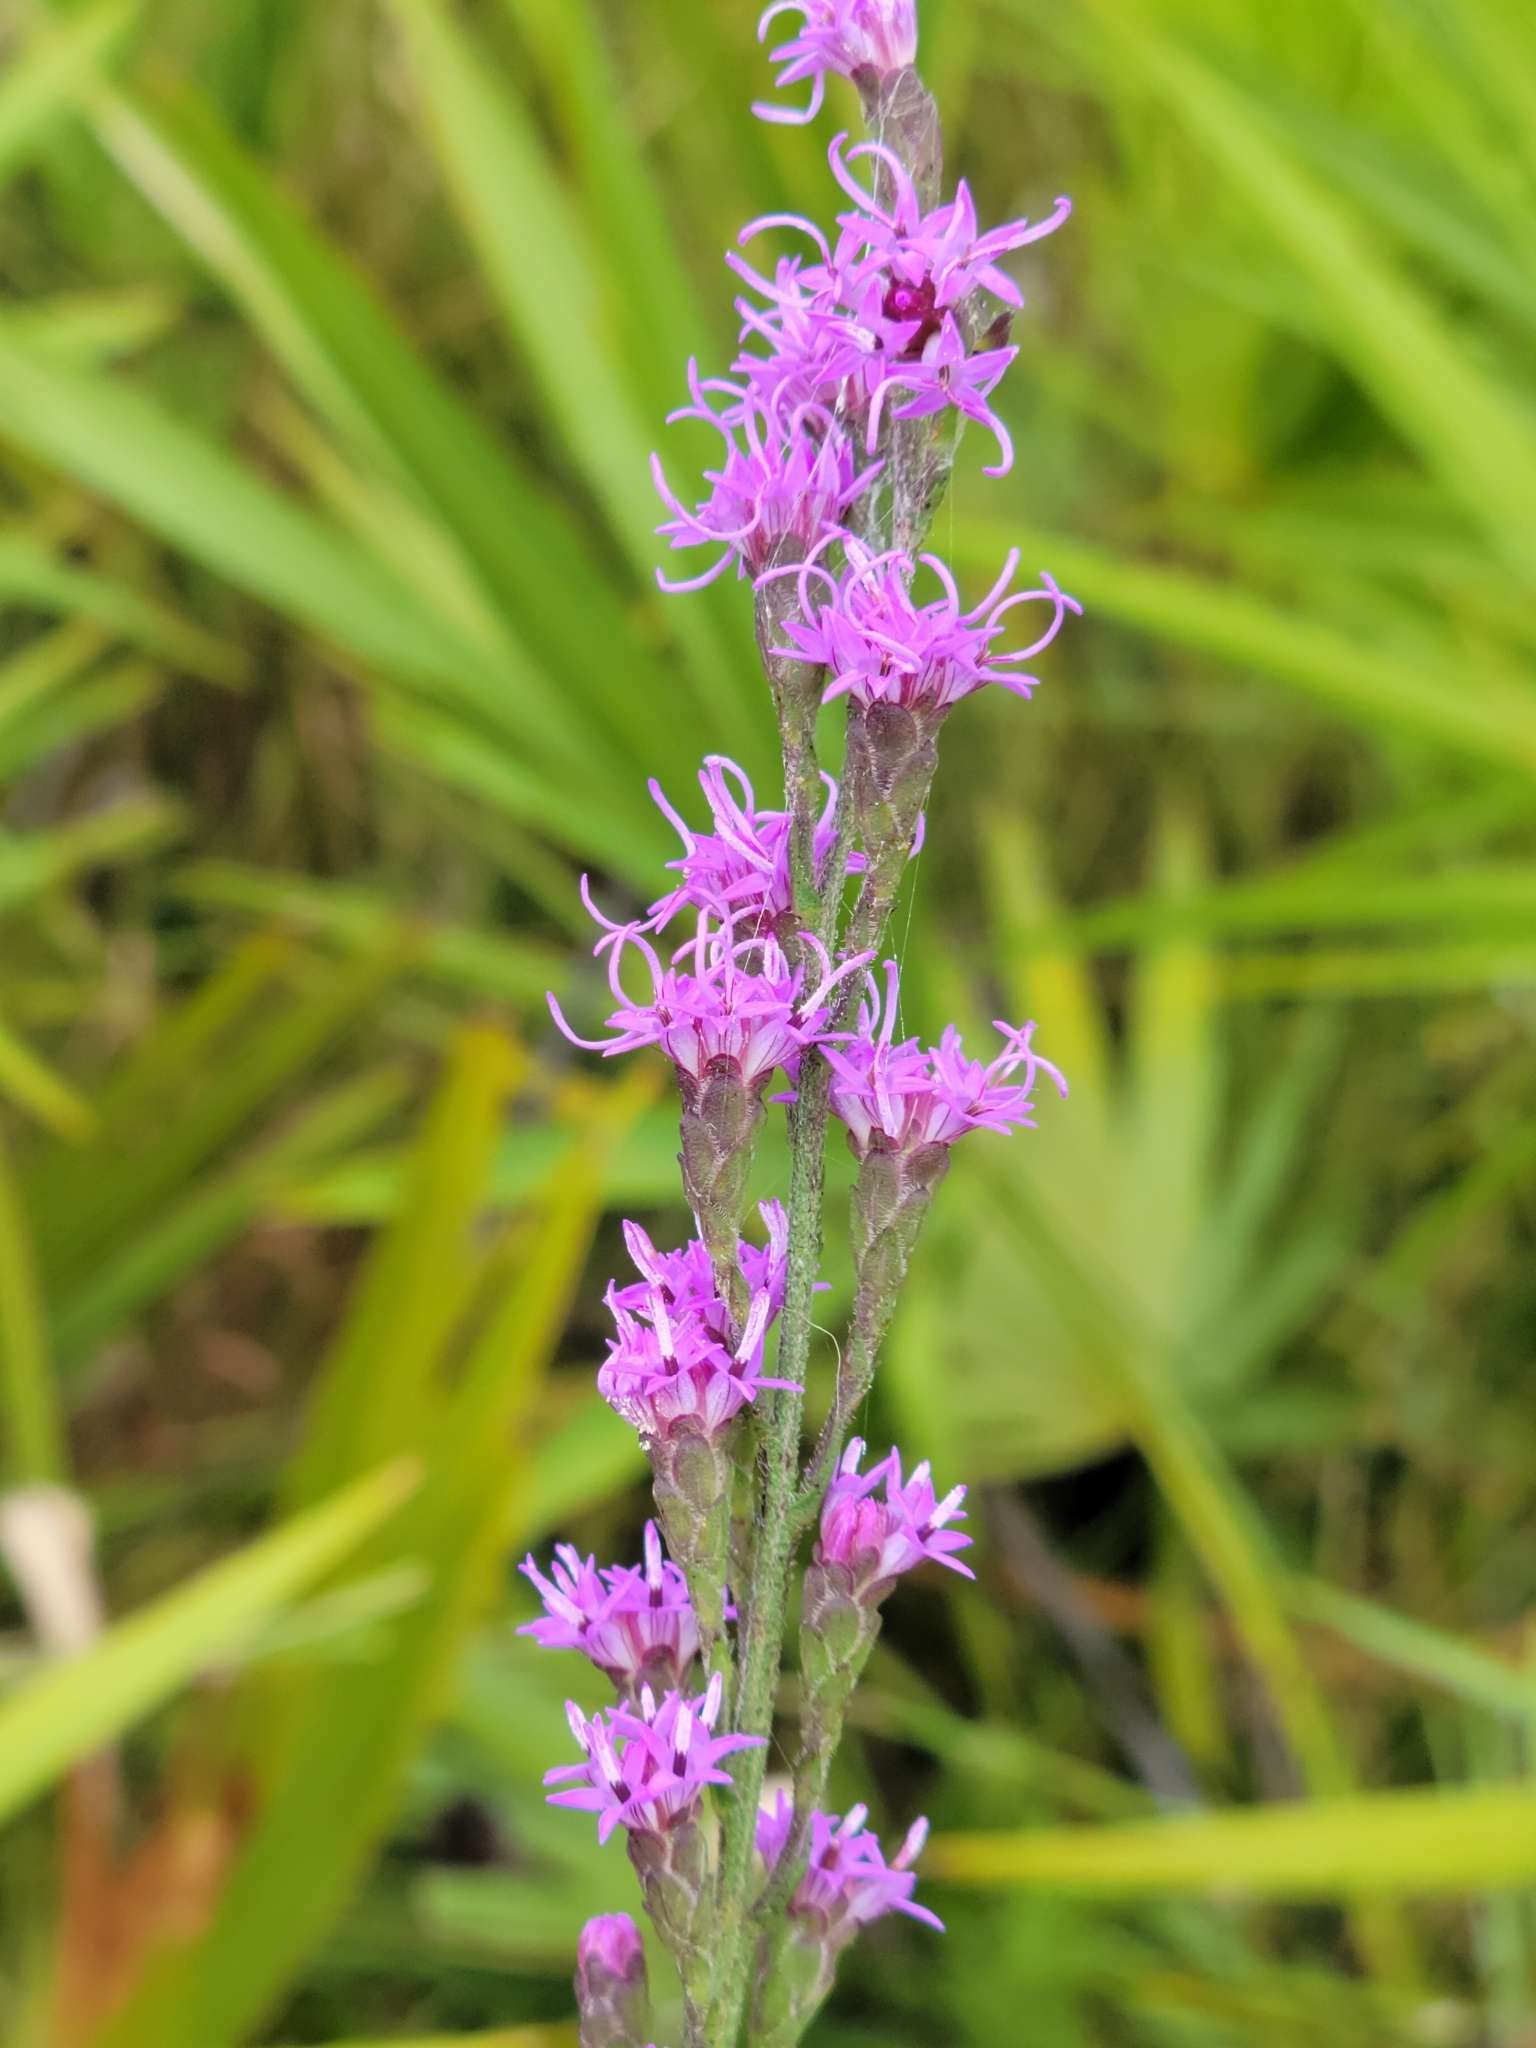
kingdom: Plantae
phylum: Tracheophyta
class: Magnoliopsida
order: Asterales
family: Asteraceae
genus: Liatris
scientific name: Liatris gracilis
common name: Slender gayfeather
